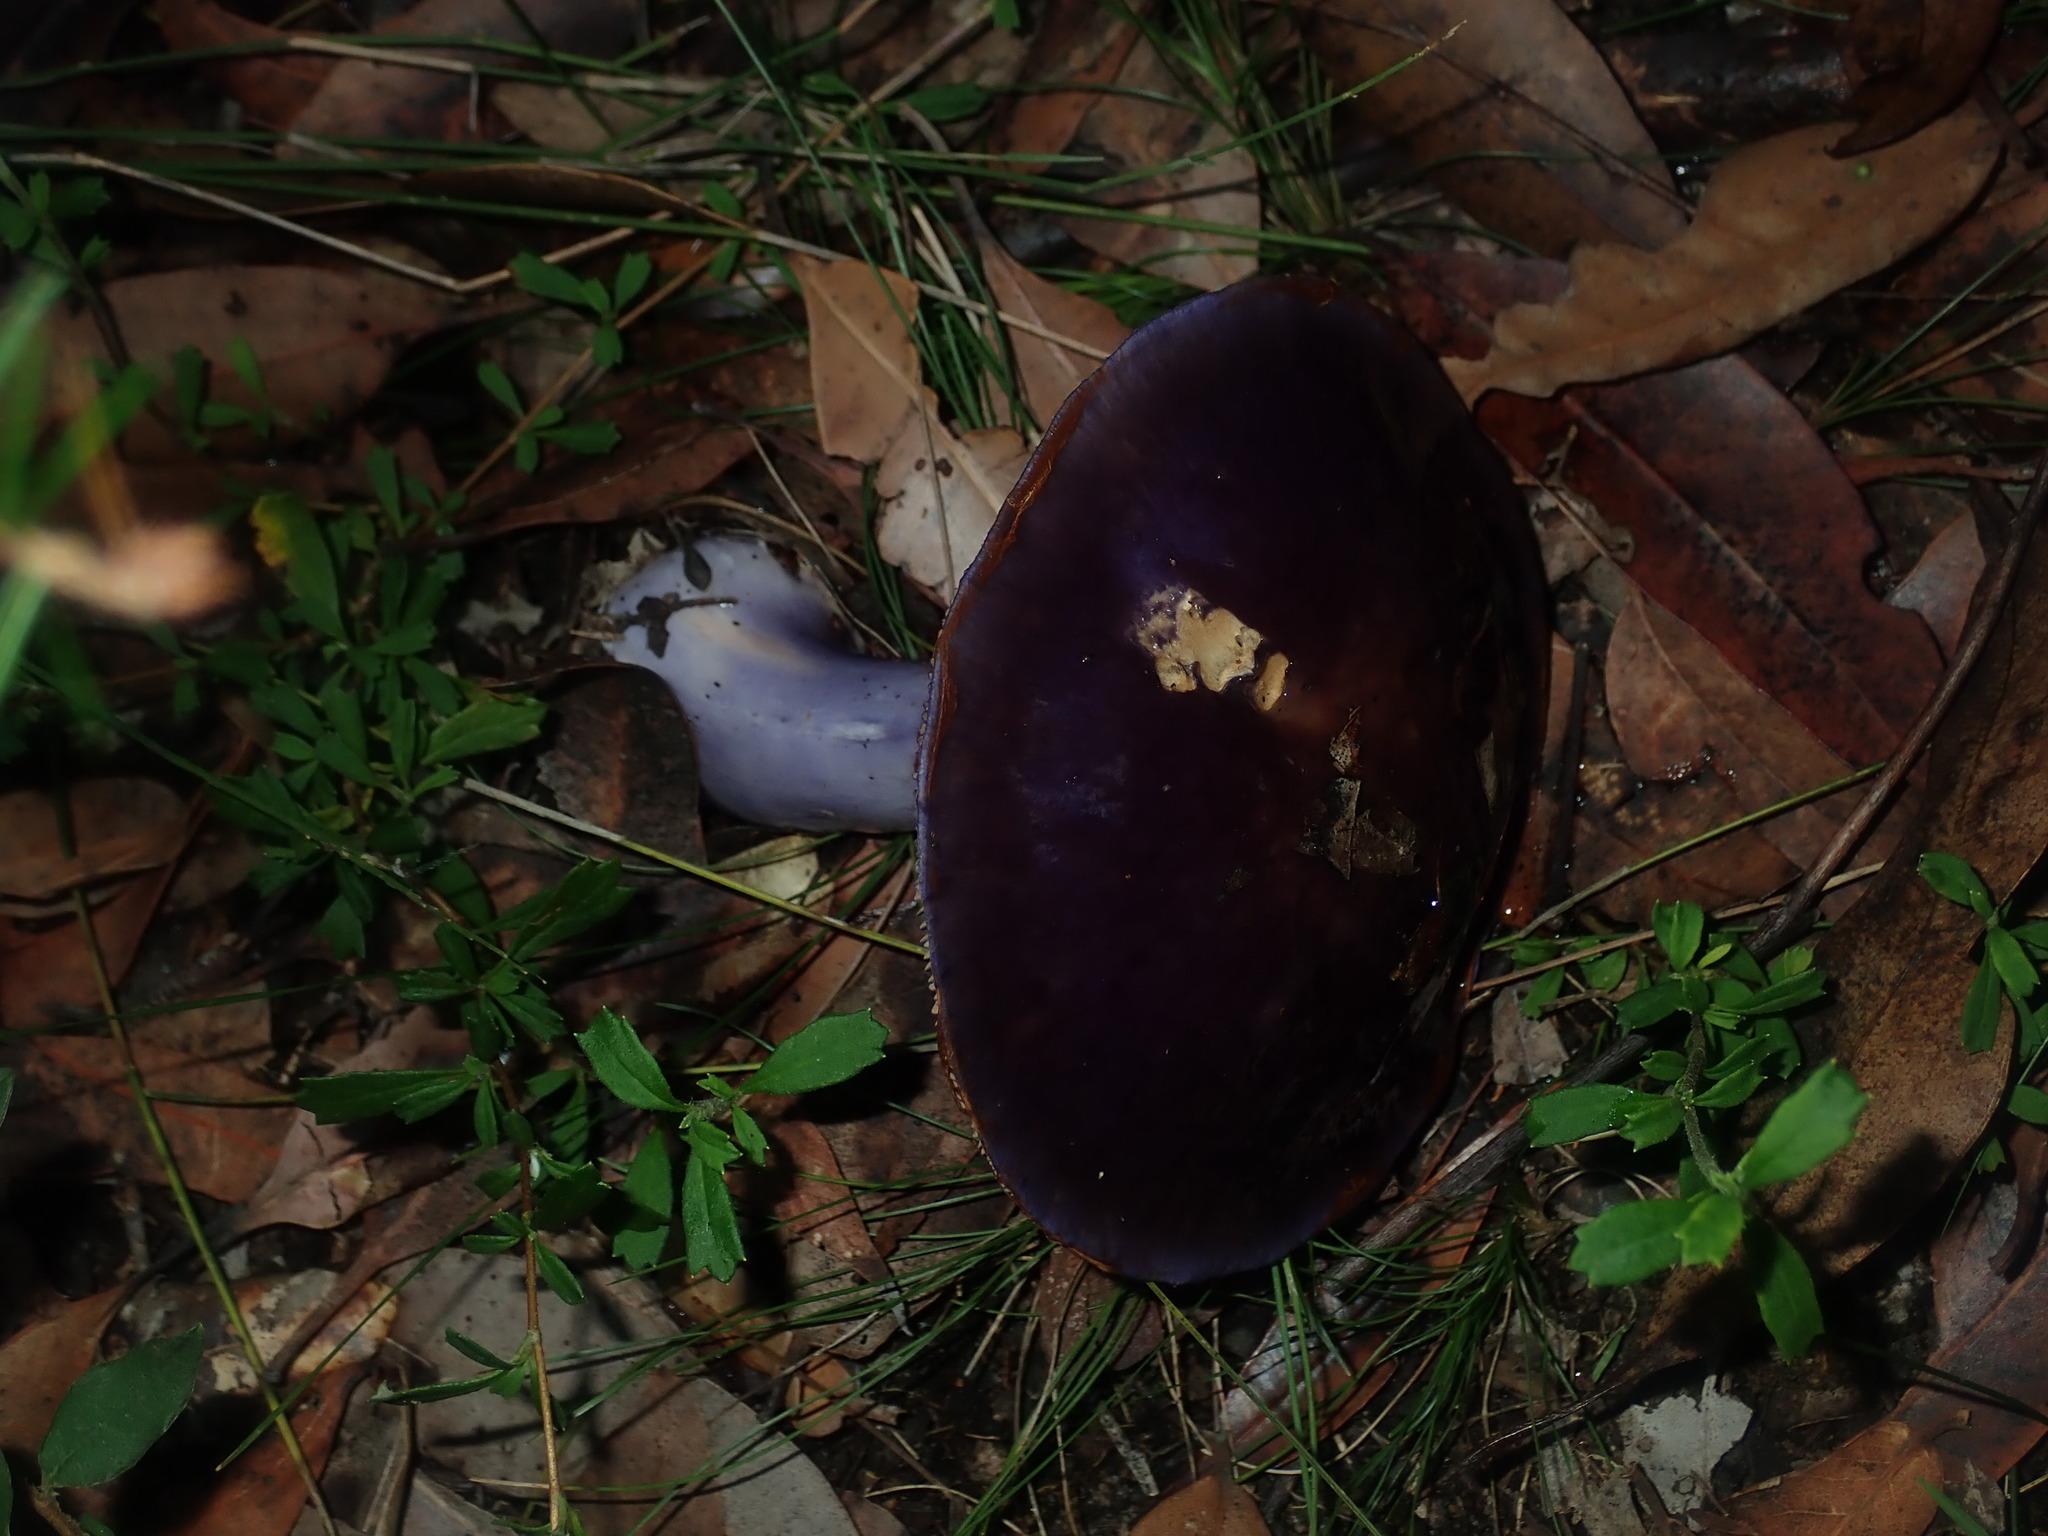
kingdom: Fungi
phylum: Basidiomycota
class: Agaricomycetes
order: Agaricales
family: Cortinariaceae
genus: Cortinarius
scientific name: Cortinarius archeri
